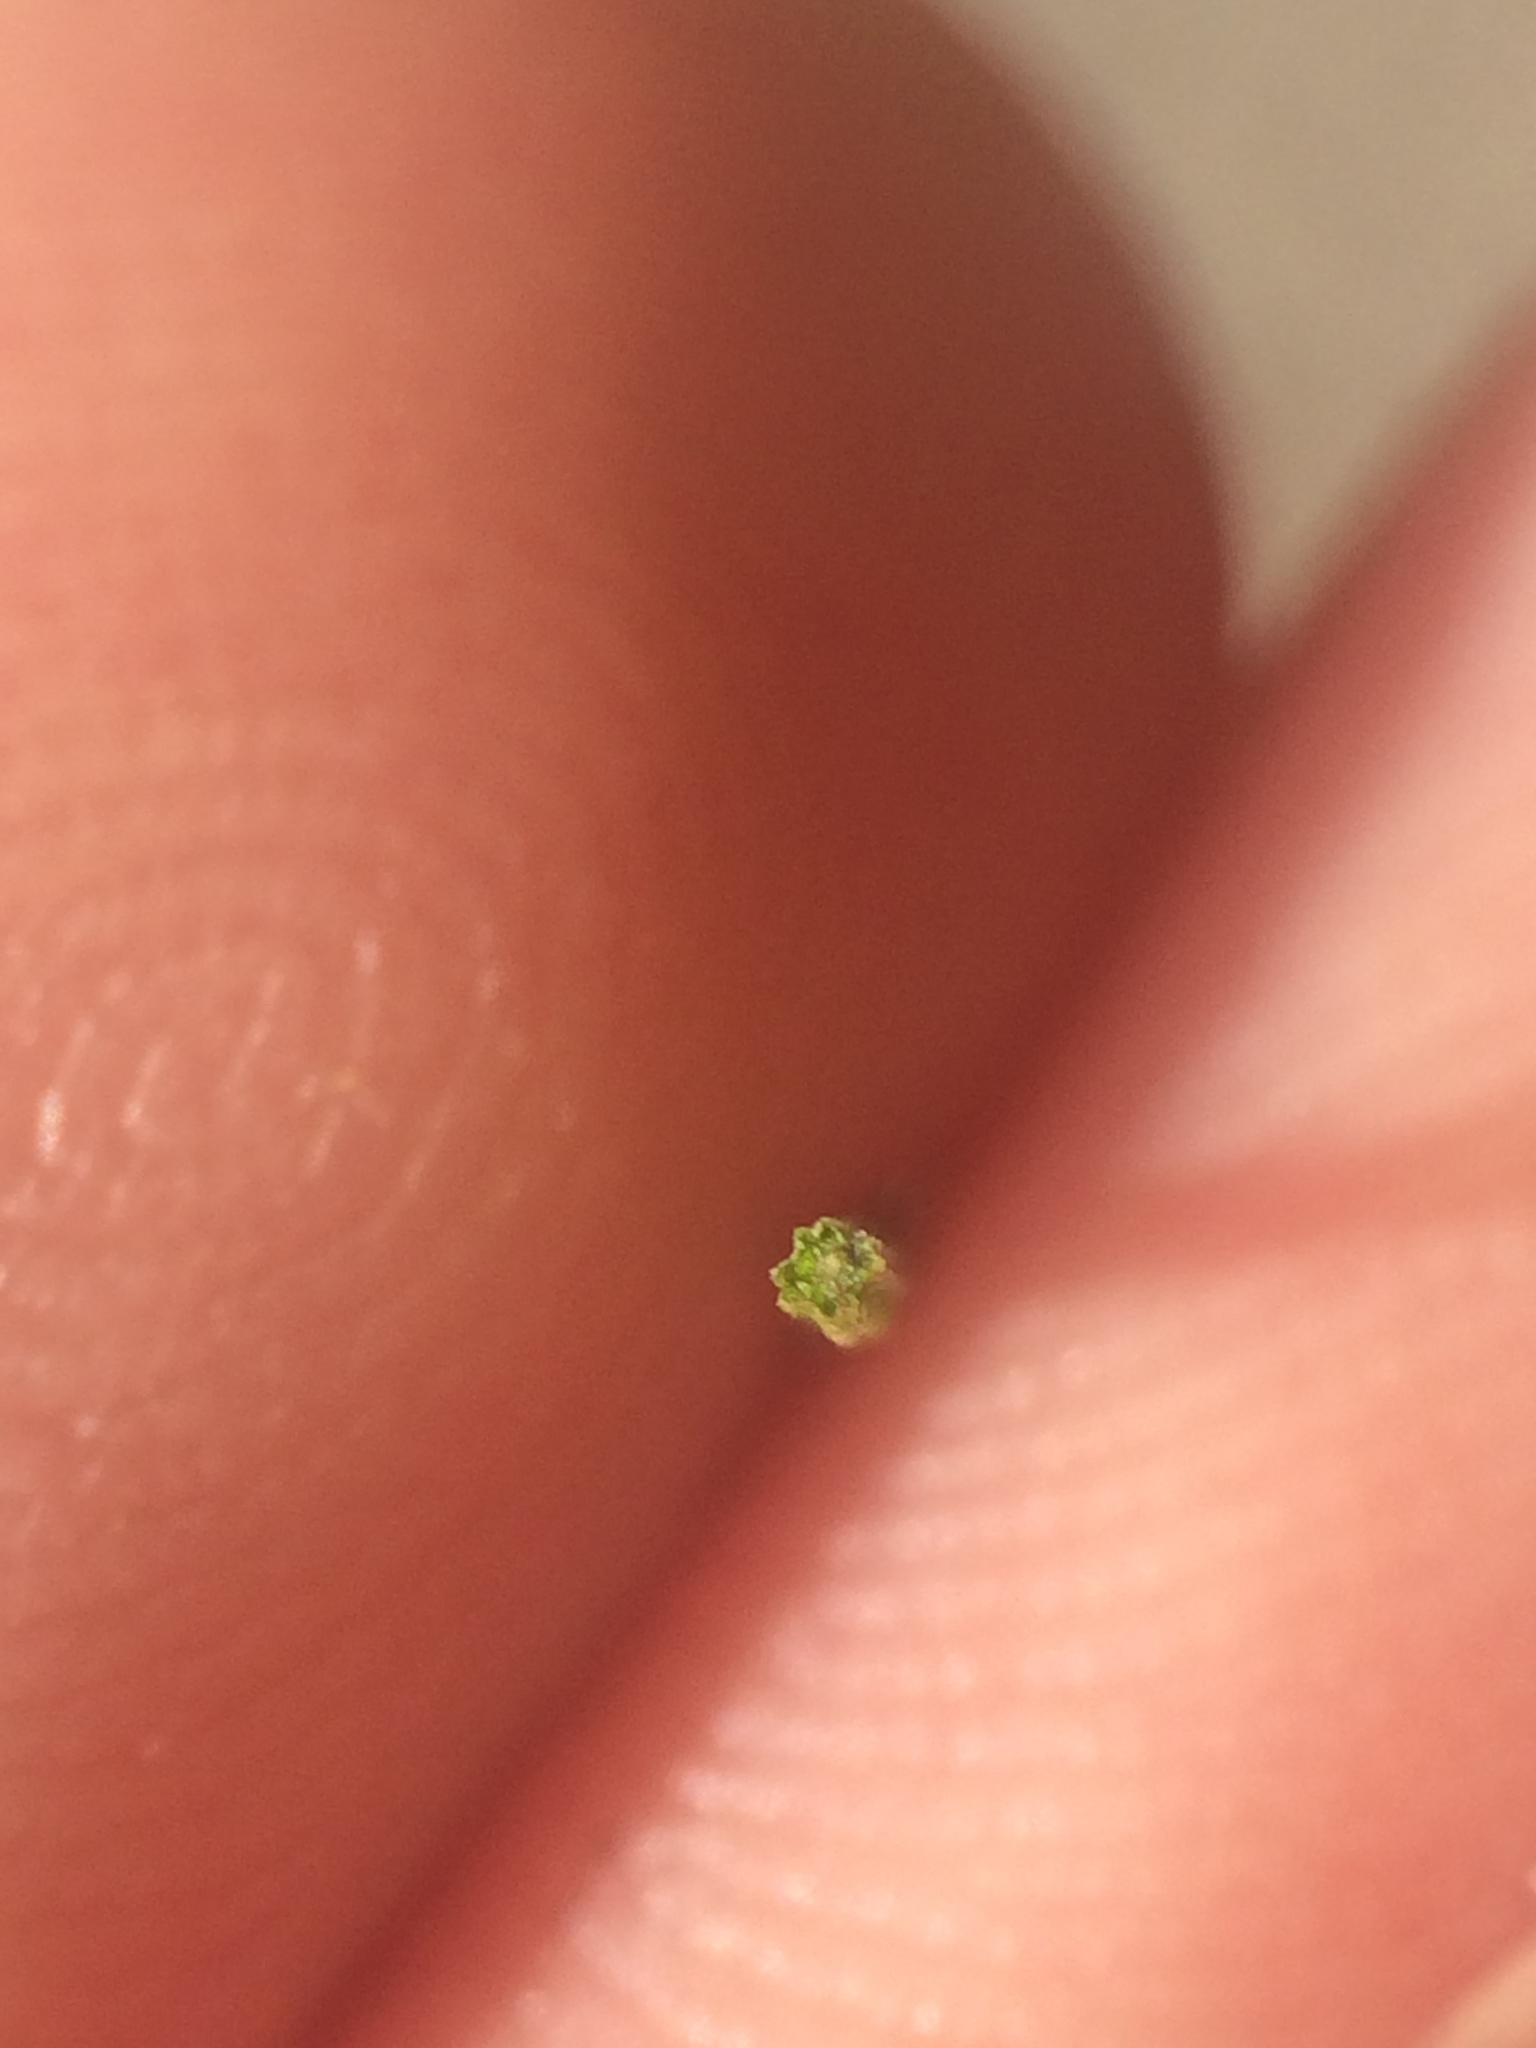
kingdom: Plantae
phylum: Tracheophyta
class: Polypodiopsida
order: Equisetales
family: Equisetaceae
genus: Equisetum
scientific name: Equisetum telmateia
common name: Great horsetail
